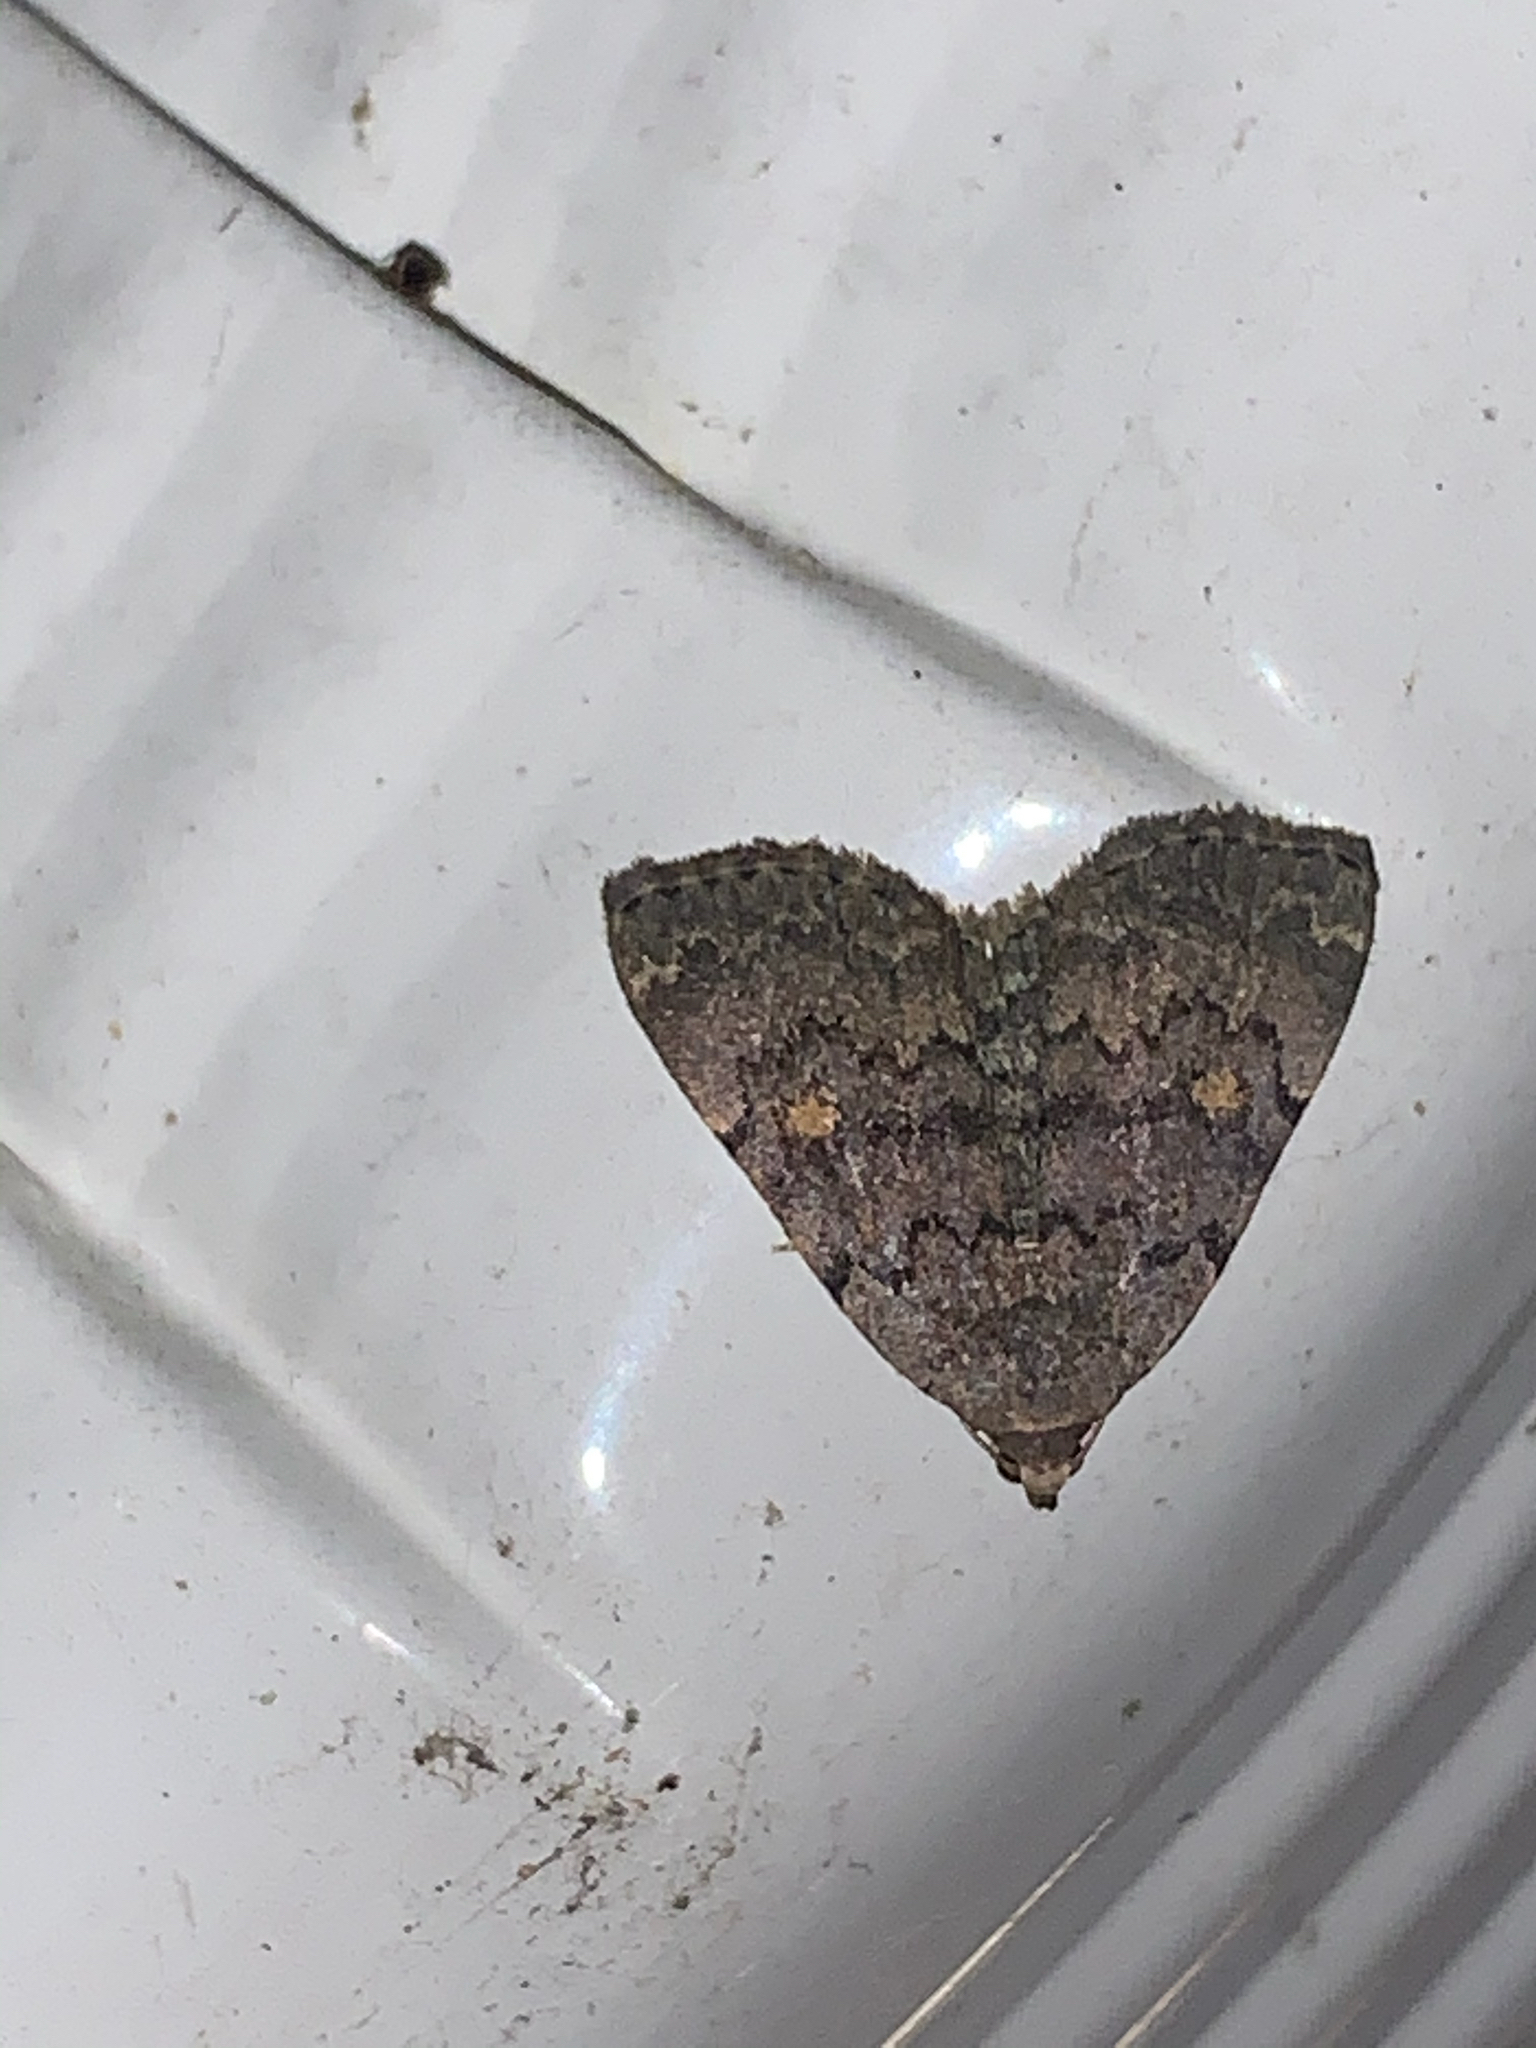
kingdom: Animalia
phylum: Arthropoda
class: Insecta
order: Lepidoptera
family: Erebidae
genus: Idia
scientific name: Idia aemula
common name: Common idia moth
